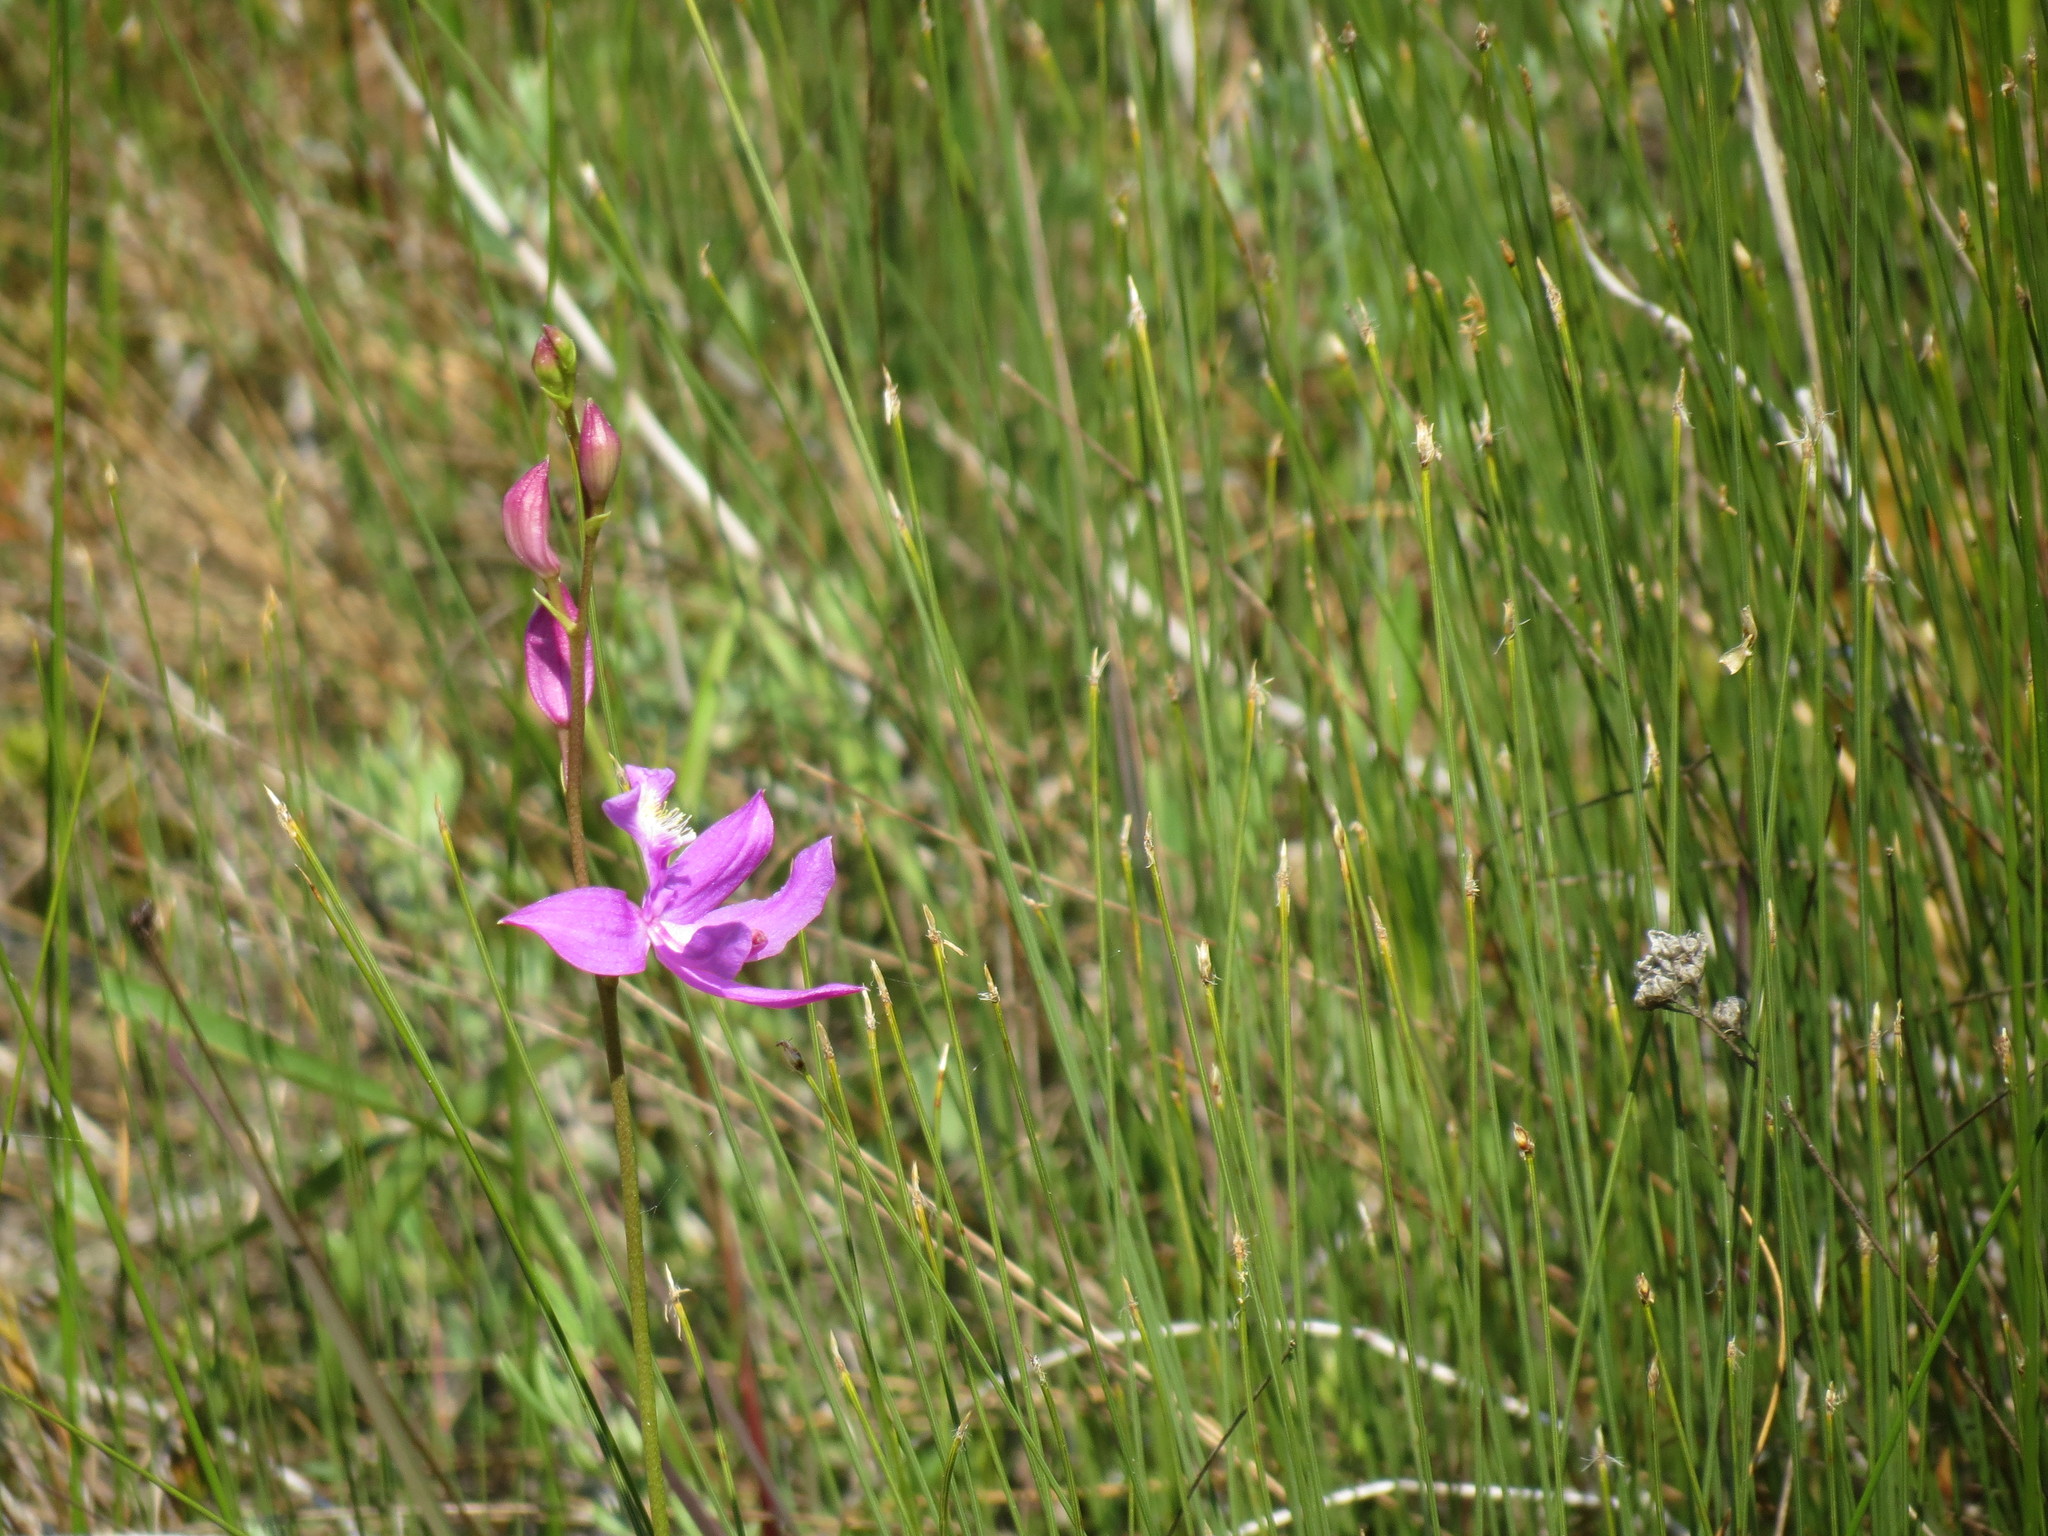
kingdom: Plantae
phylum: Tracheophyta
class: Liliopsida
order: Asparagales
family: Orchidaceae
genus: Calopogon
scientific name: Calopogon tuberosus
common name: Grass-pink
